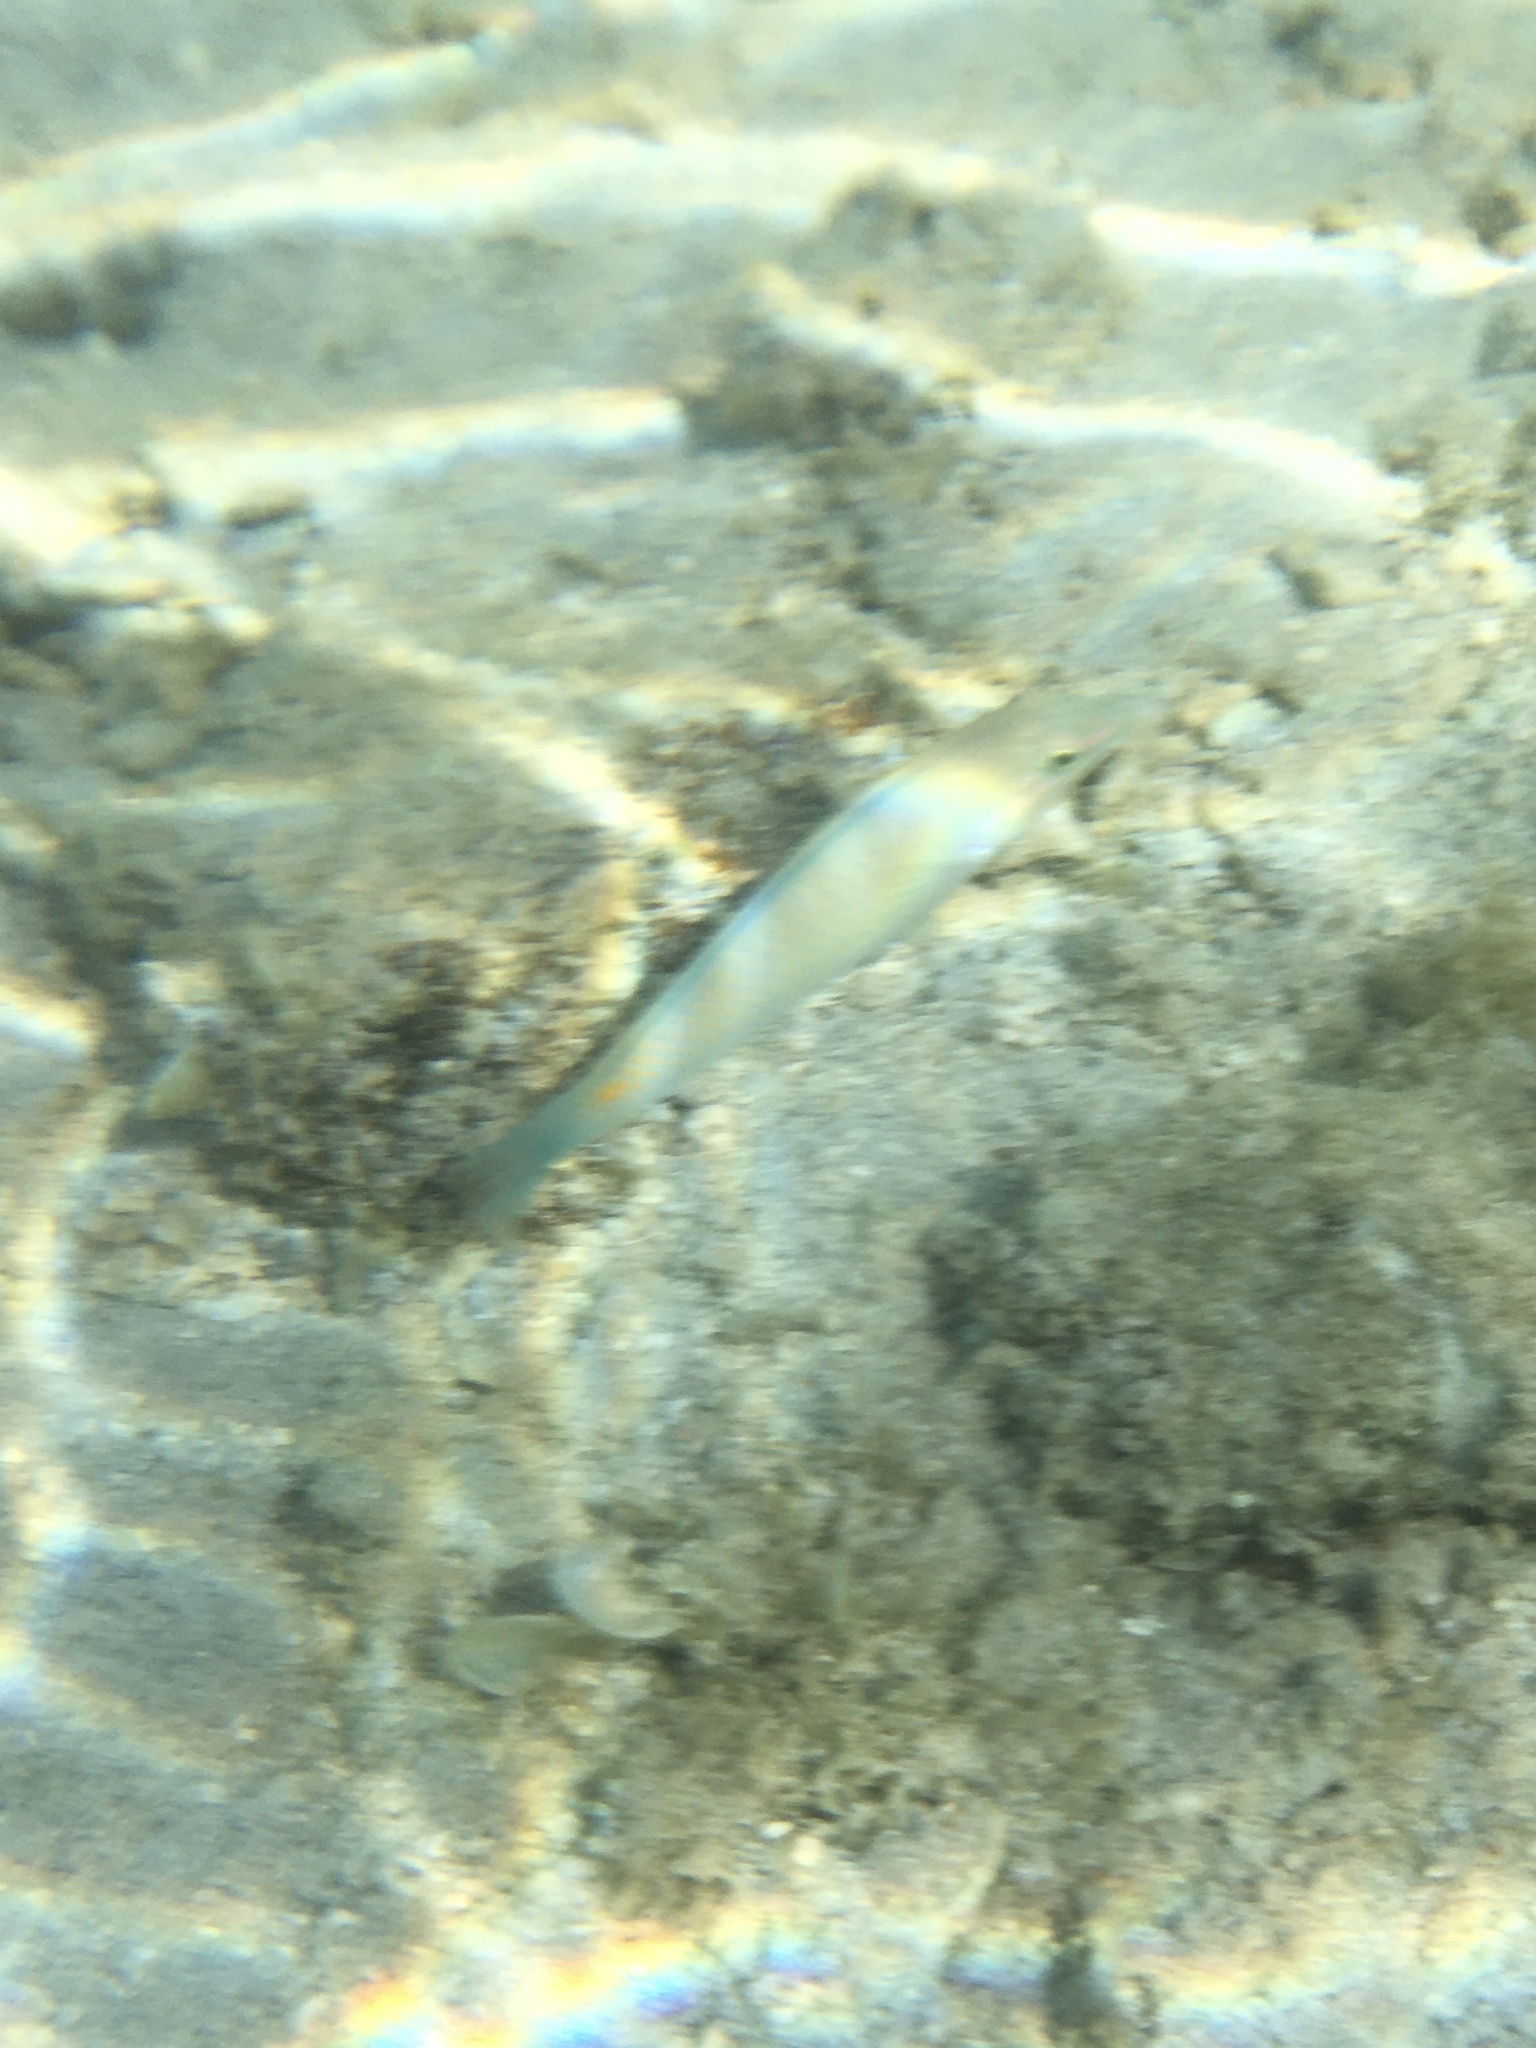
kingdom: Animalia
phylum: Chordata
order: Perciformes
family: Labridae
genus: Halichoeres
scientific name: Halichoeres trimaculatus
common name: Three-spot wrasse
